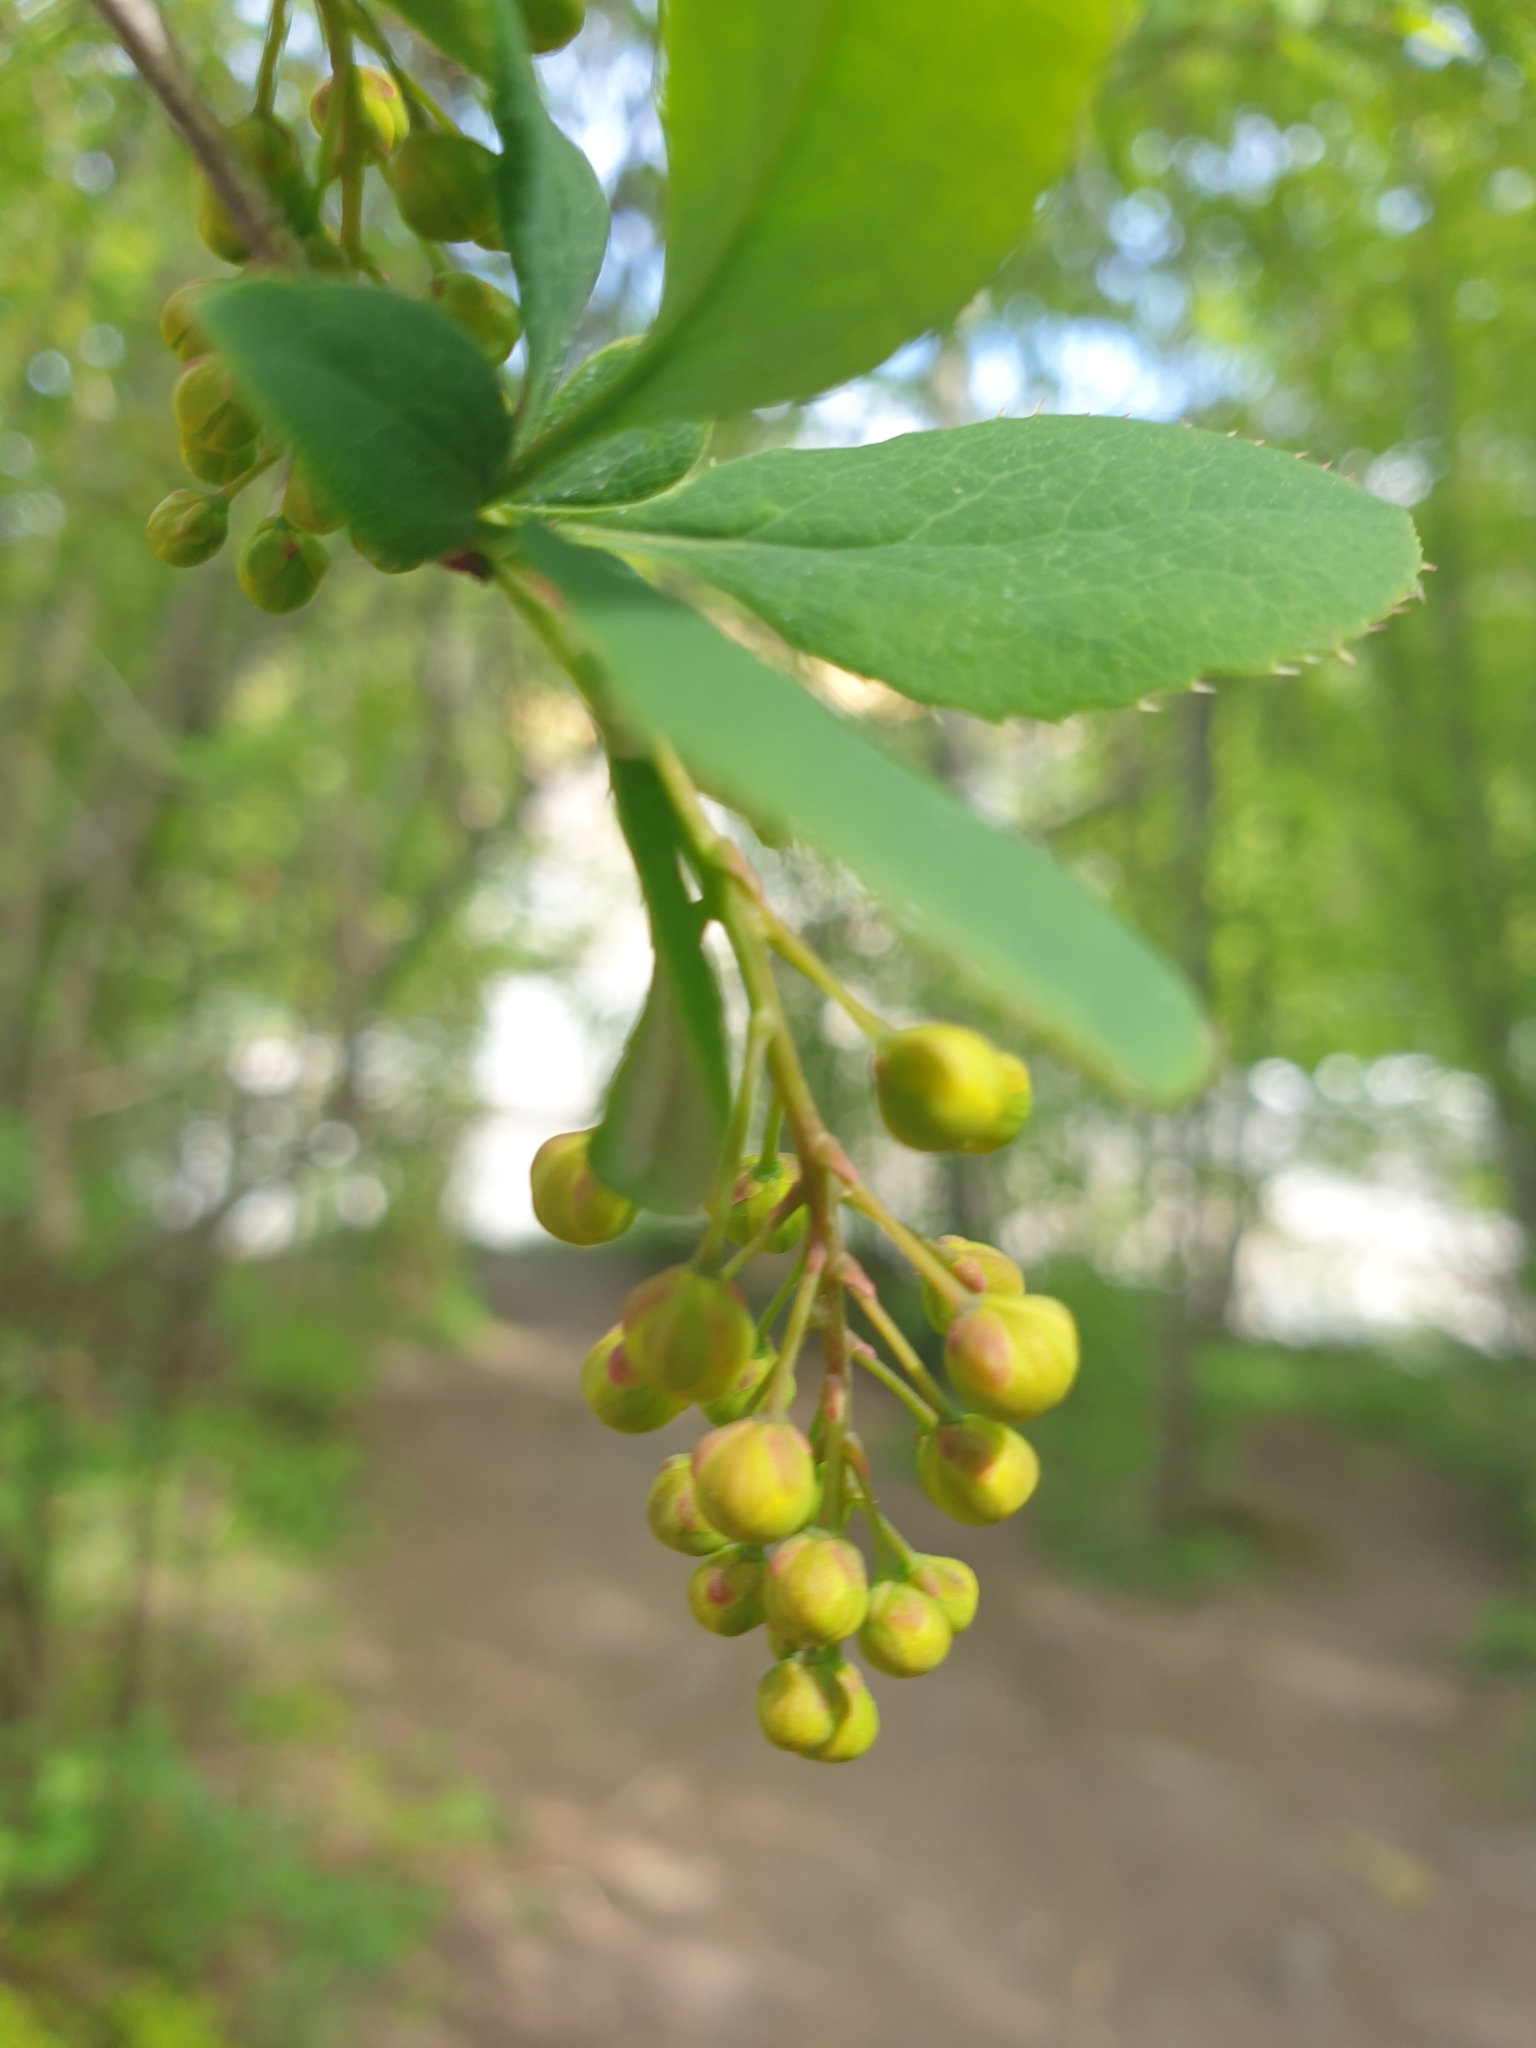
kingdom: Plantae
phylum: Tracheophyta
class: Magnoliopsida
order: Ranunculales
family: Berberidaceae
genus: Berberis
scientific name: Berberis vulgaris
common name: Barberry
